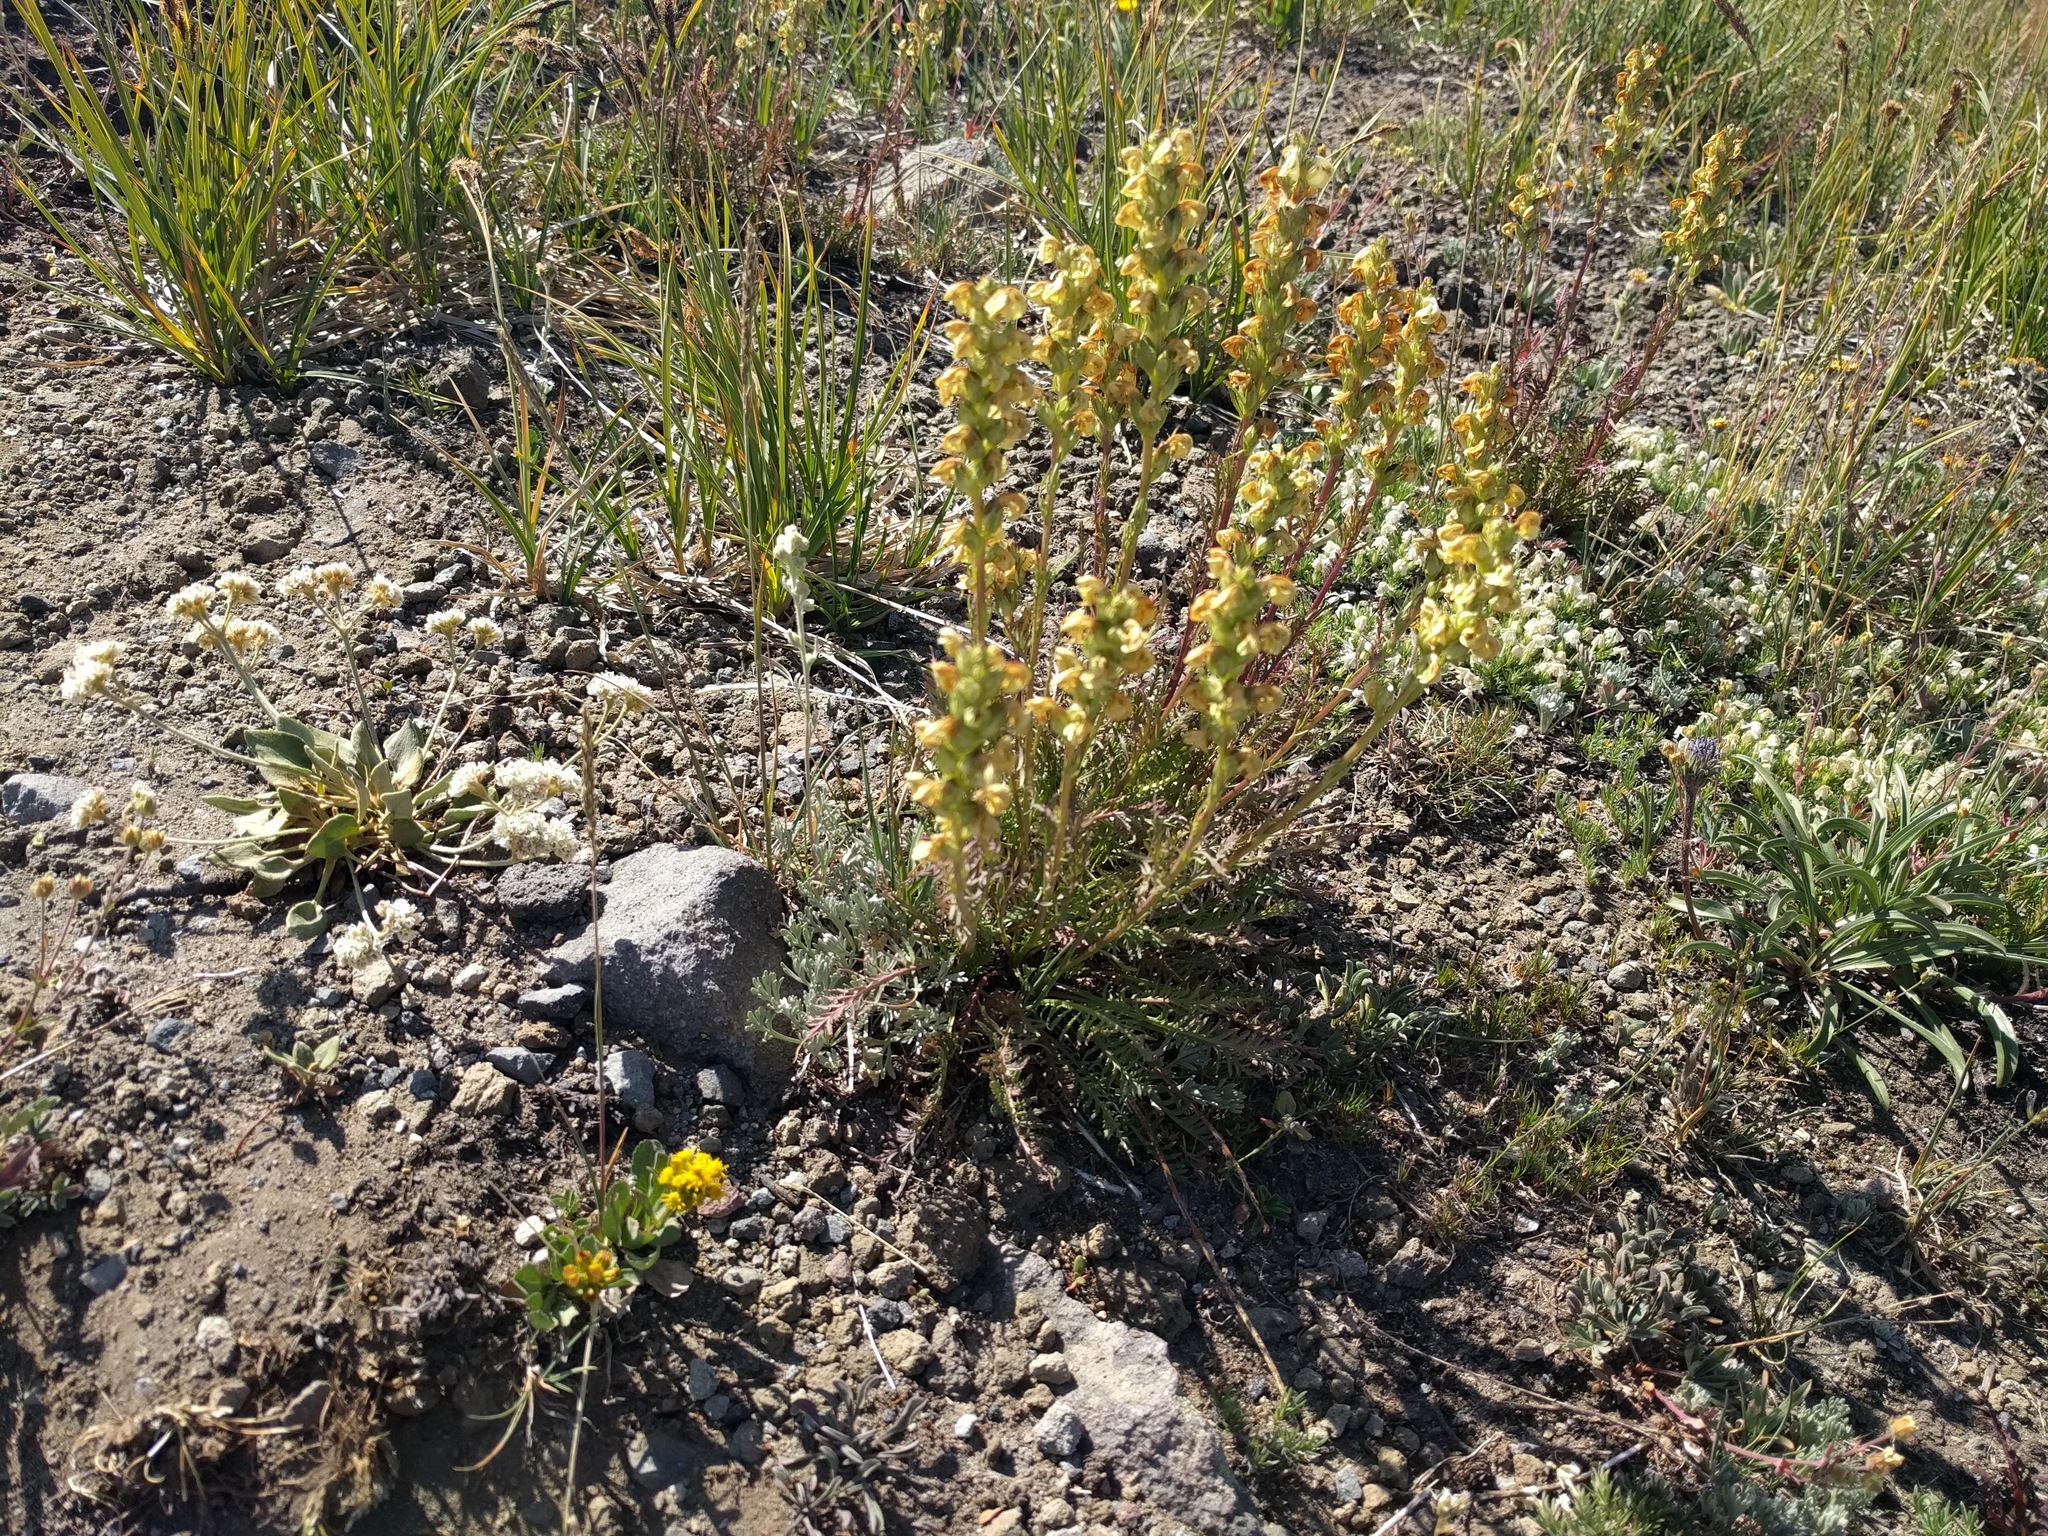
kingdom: Plantae
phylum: Tracheophyta
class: Magnoliopsida
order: Lamiales
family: Orobanchaceae
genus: Pedicularis
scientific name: Pedicularis contorta
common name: Coiled lousewort
